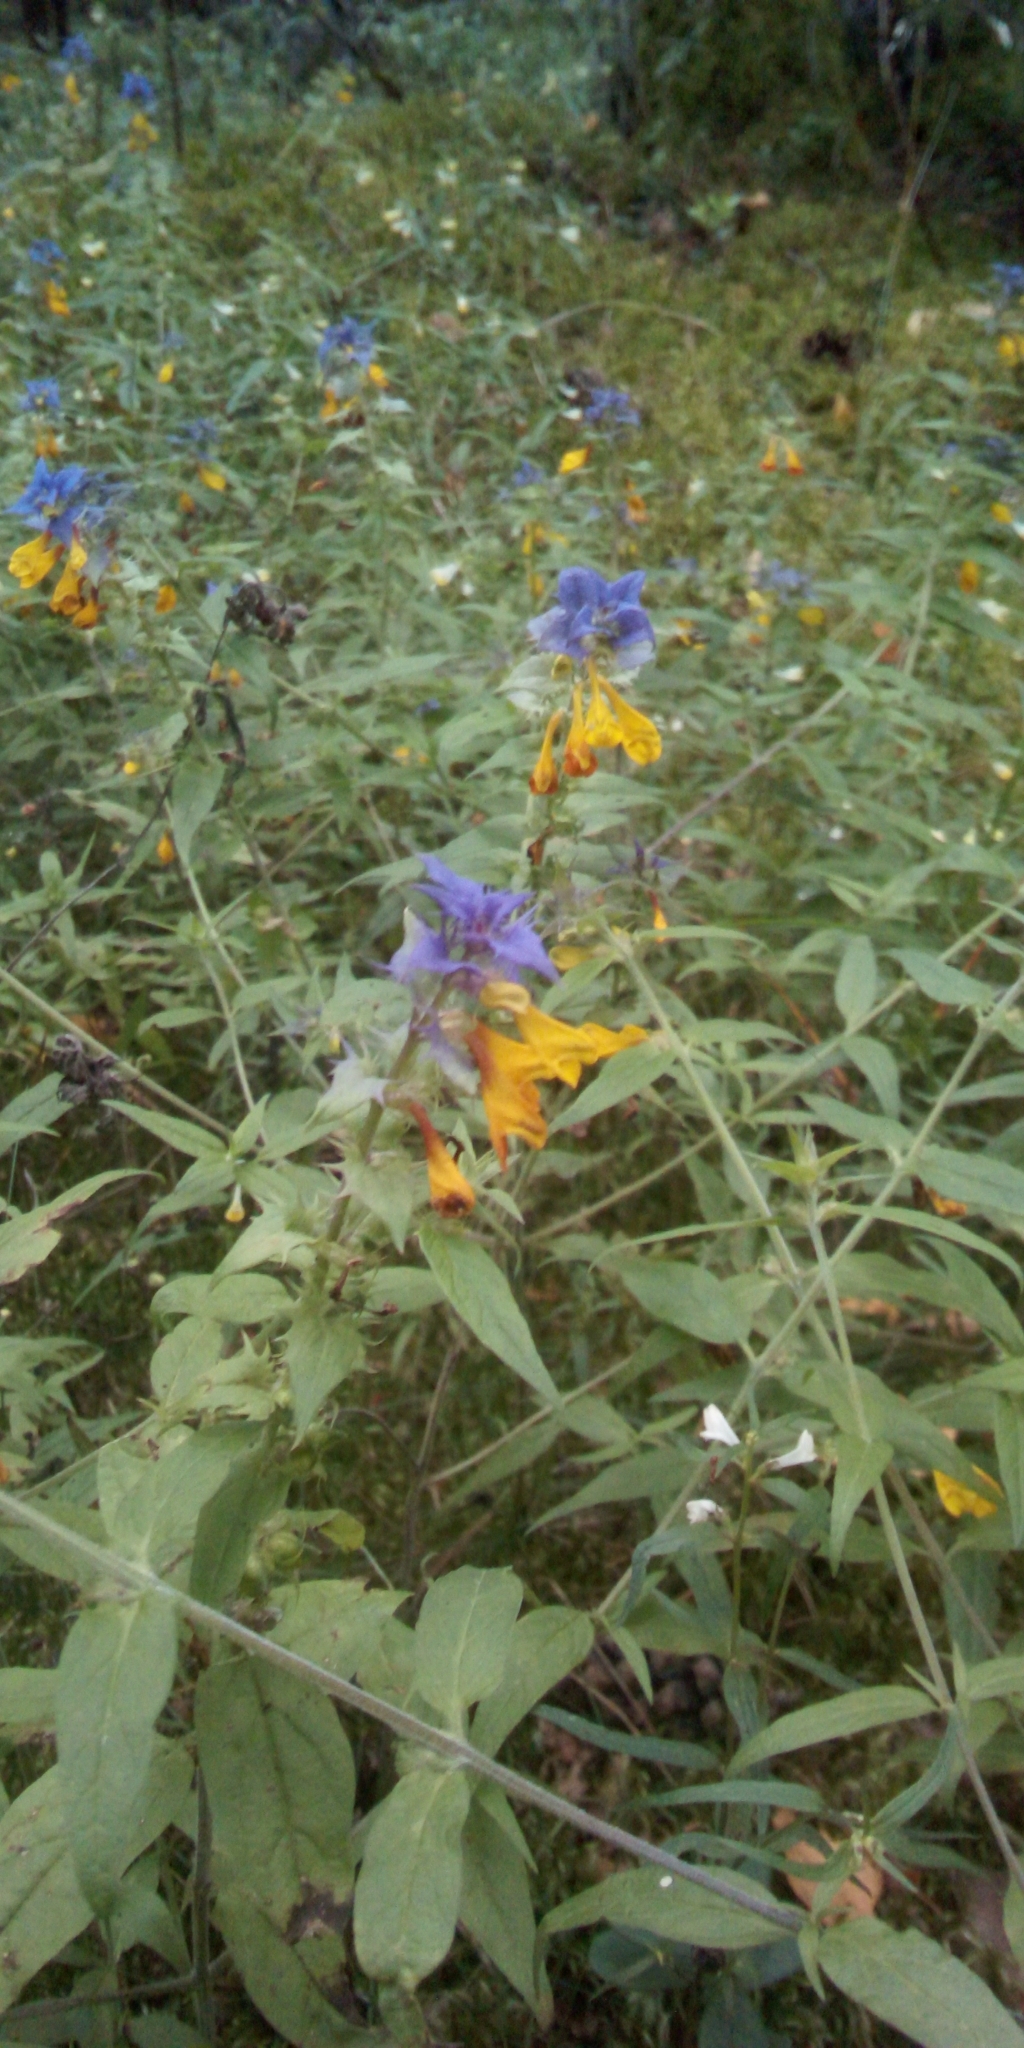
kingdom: Plantae
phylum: Tracheophyta
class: Magnoliopsida
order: Lamiales
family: Orobanchaceae
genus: Melampyrum
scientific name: Melampyrum nemorosum
